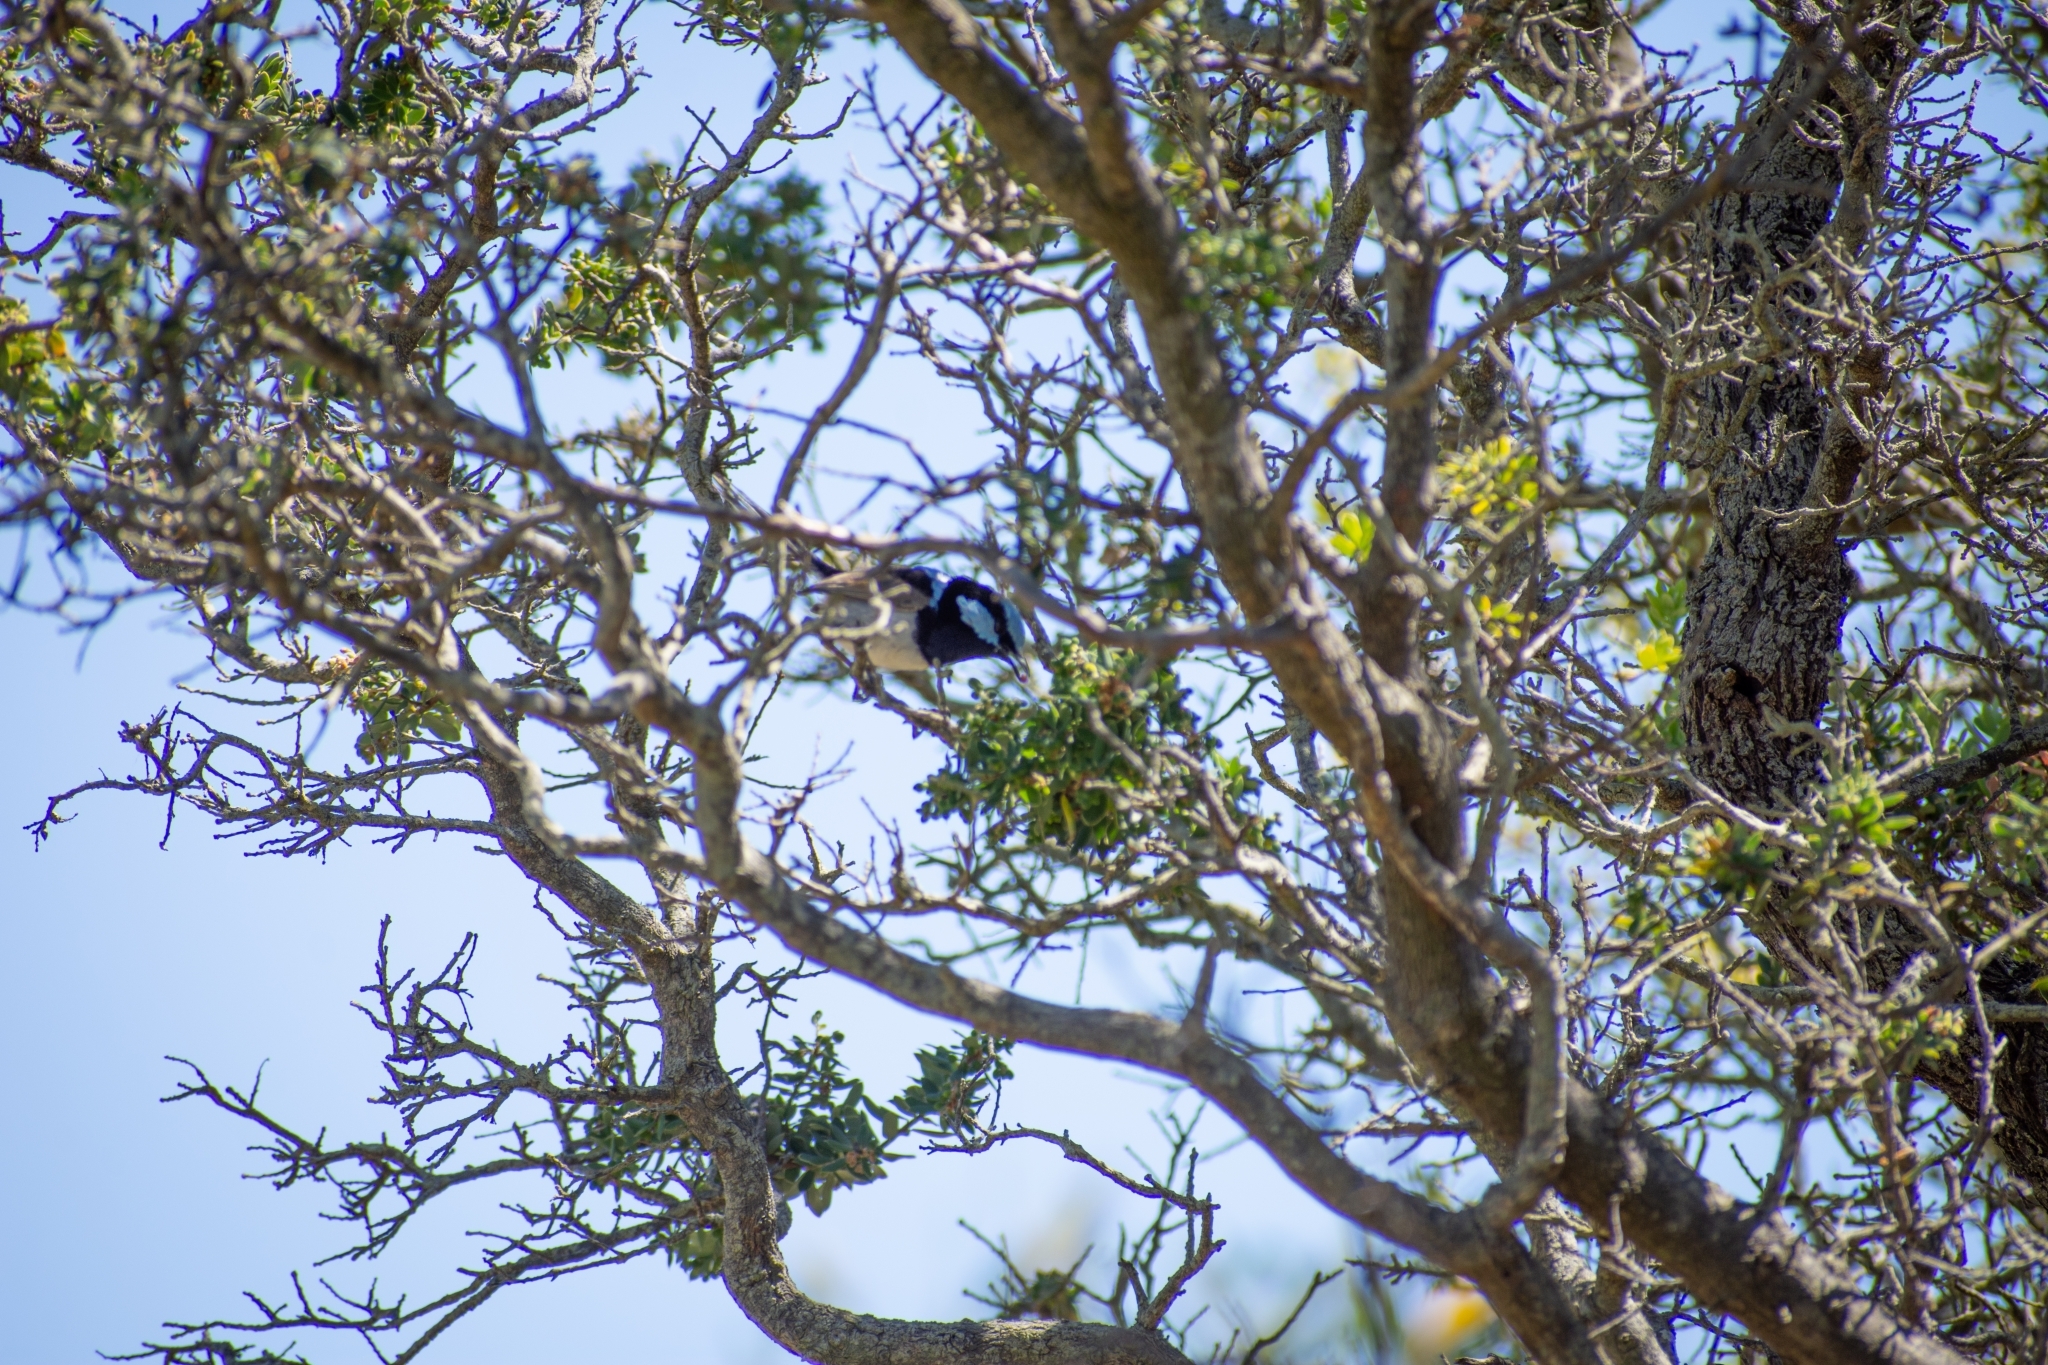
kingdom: Animalia
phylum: Chordata
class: Aves
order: Passeriformes
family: Maluridae
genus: Malurus
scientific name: Malurus cyaneus
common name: Superb fairywren
